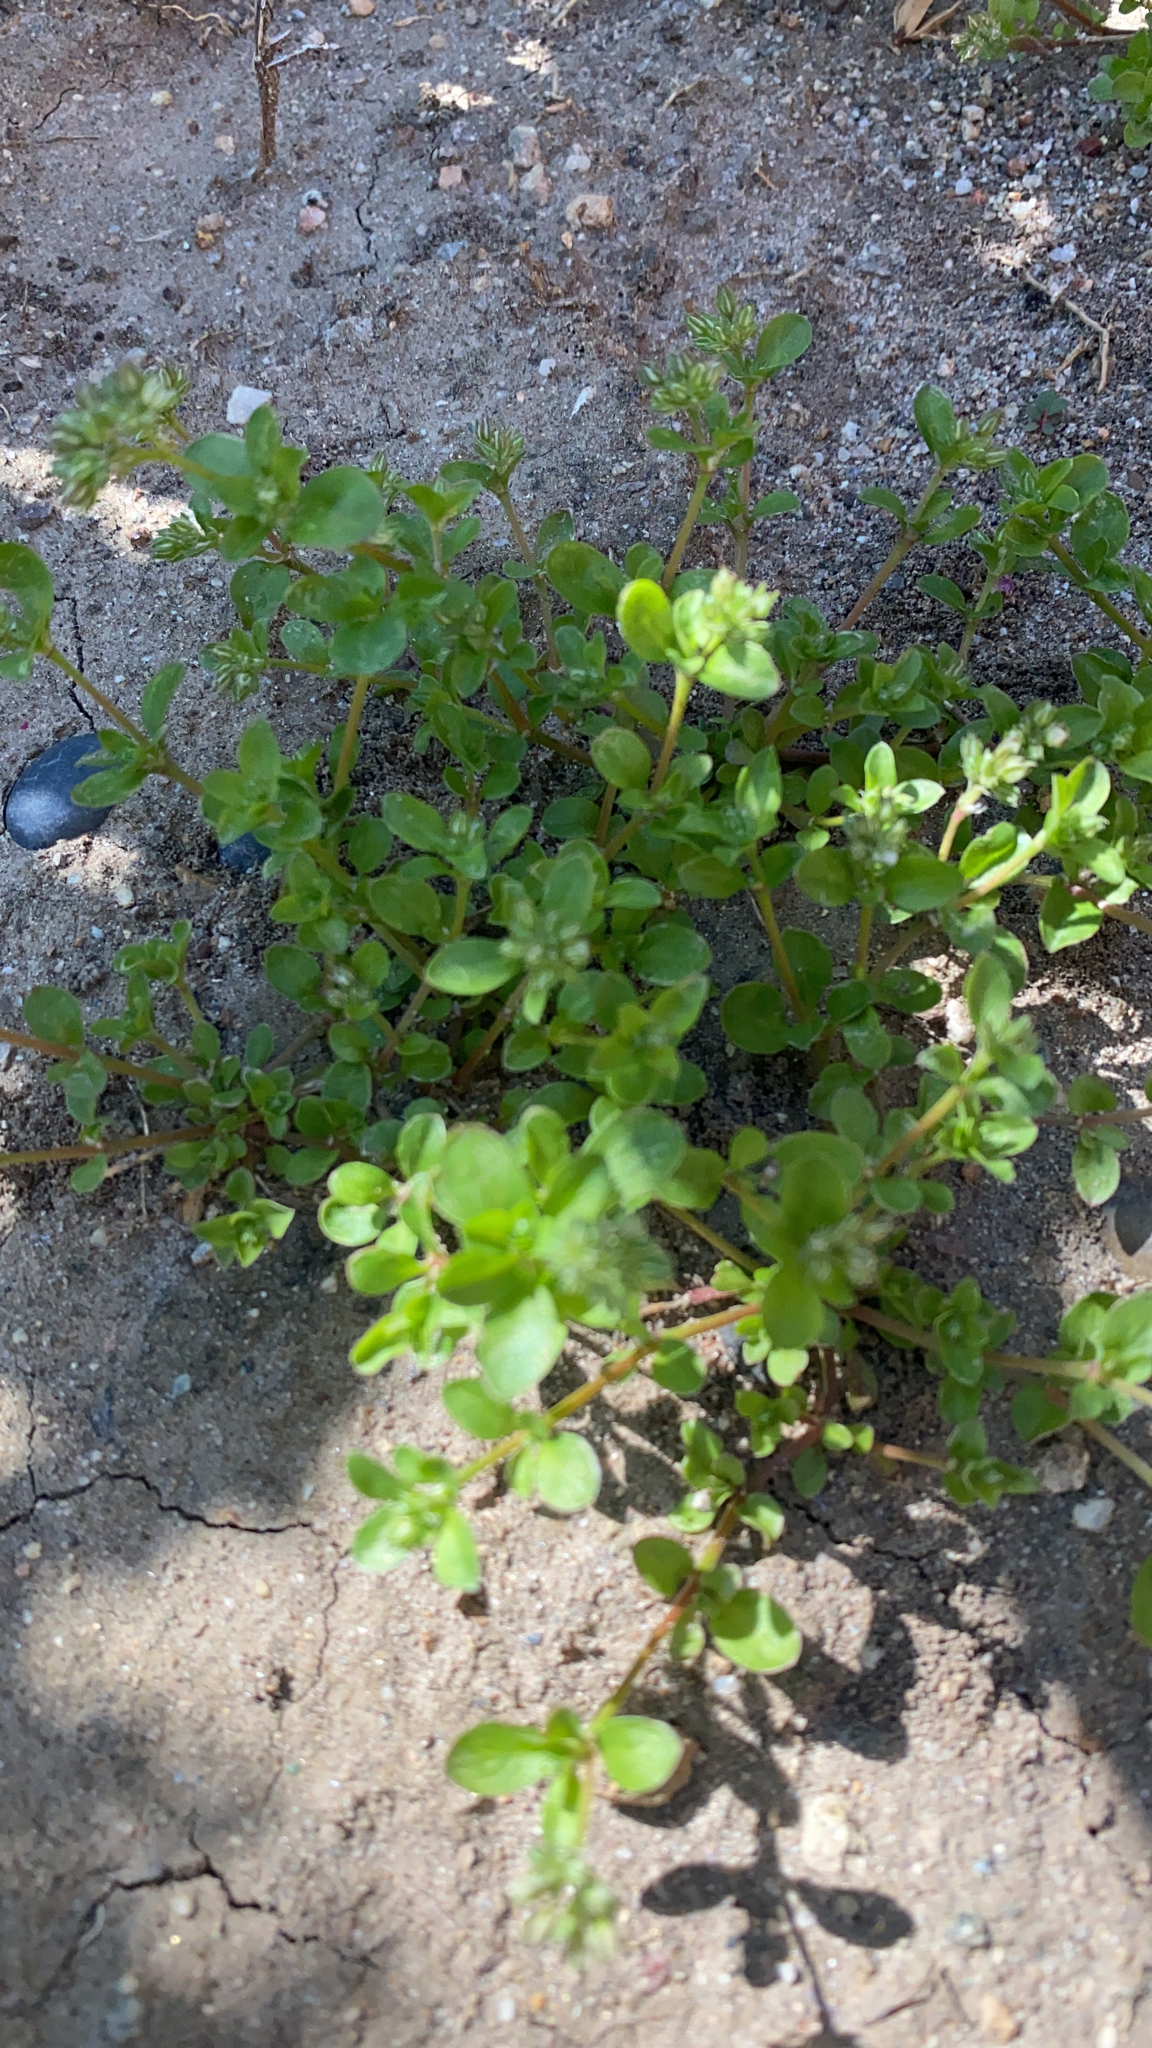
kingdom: Plantae
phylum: Tracheophyta
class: Magnoliopsida
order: Caryophyllales
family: Caryophyllaceae
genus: Polycarpon
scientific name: Polycarpon tetraphyllum
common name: Four-leaved all-seed
